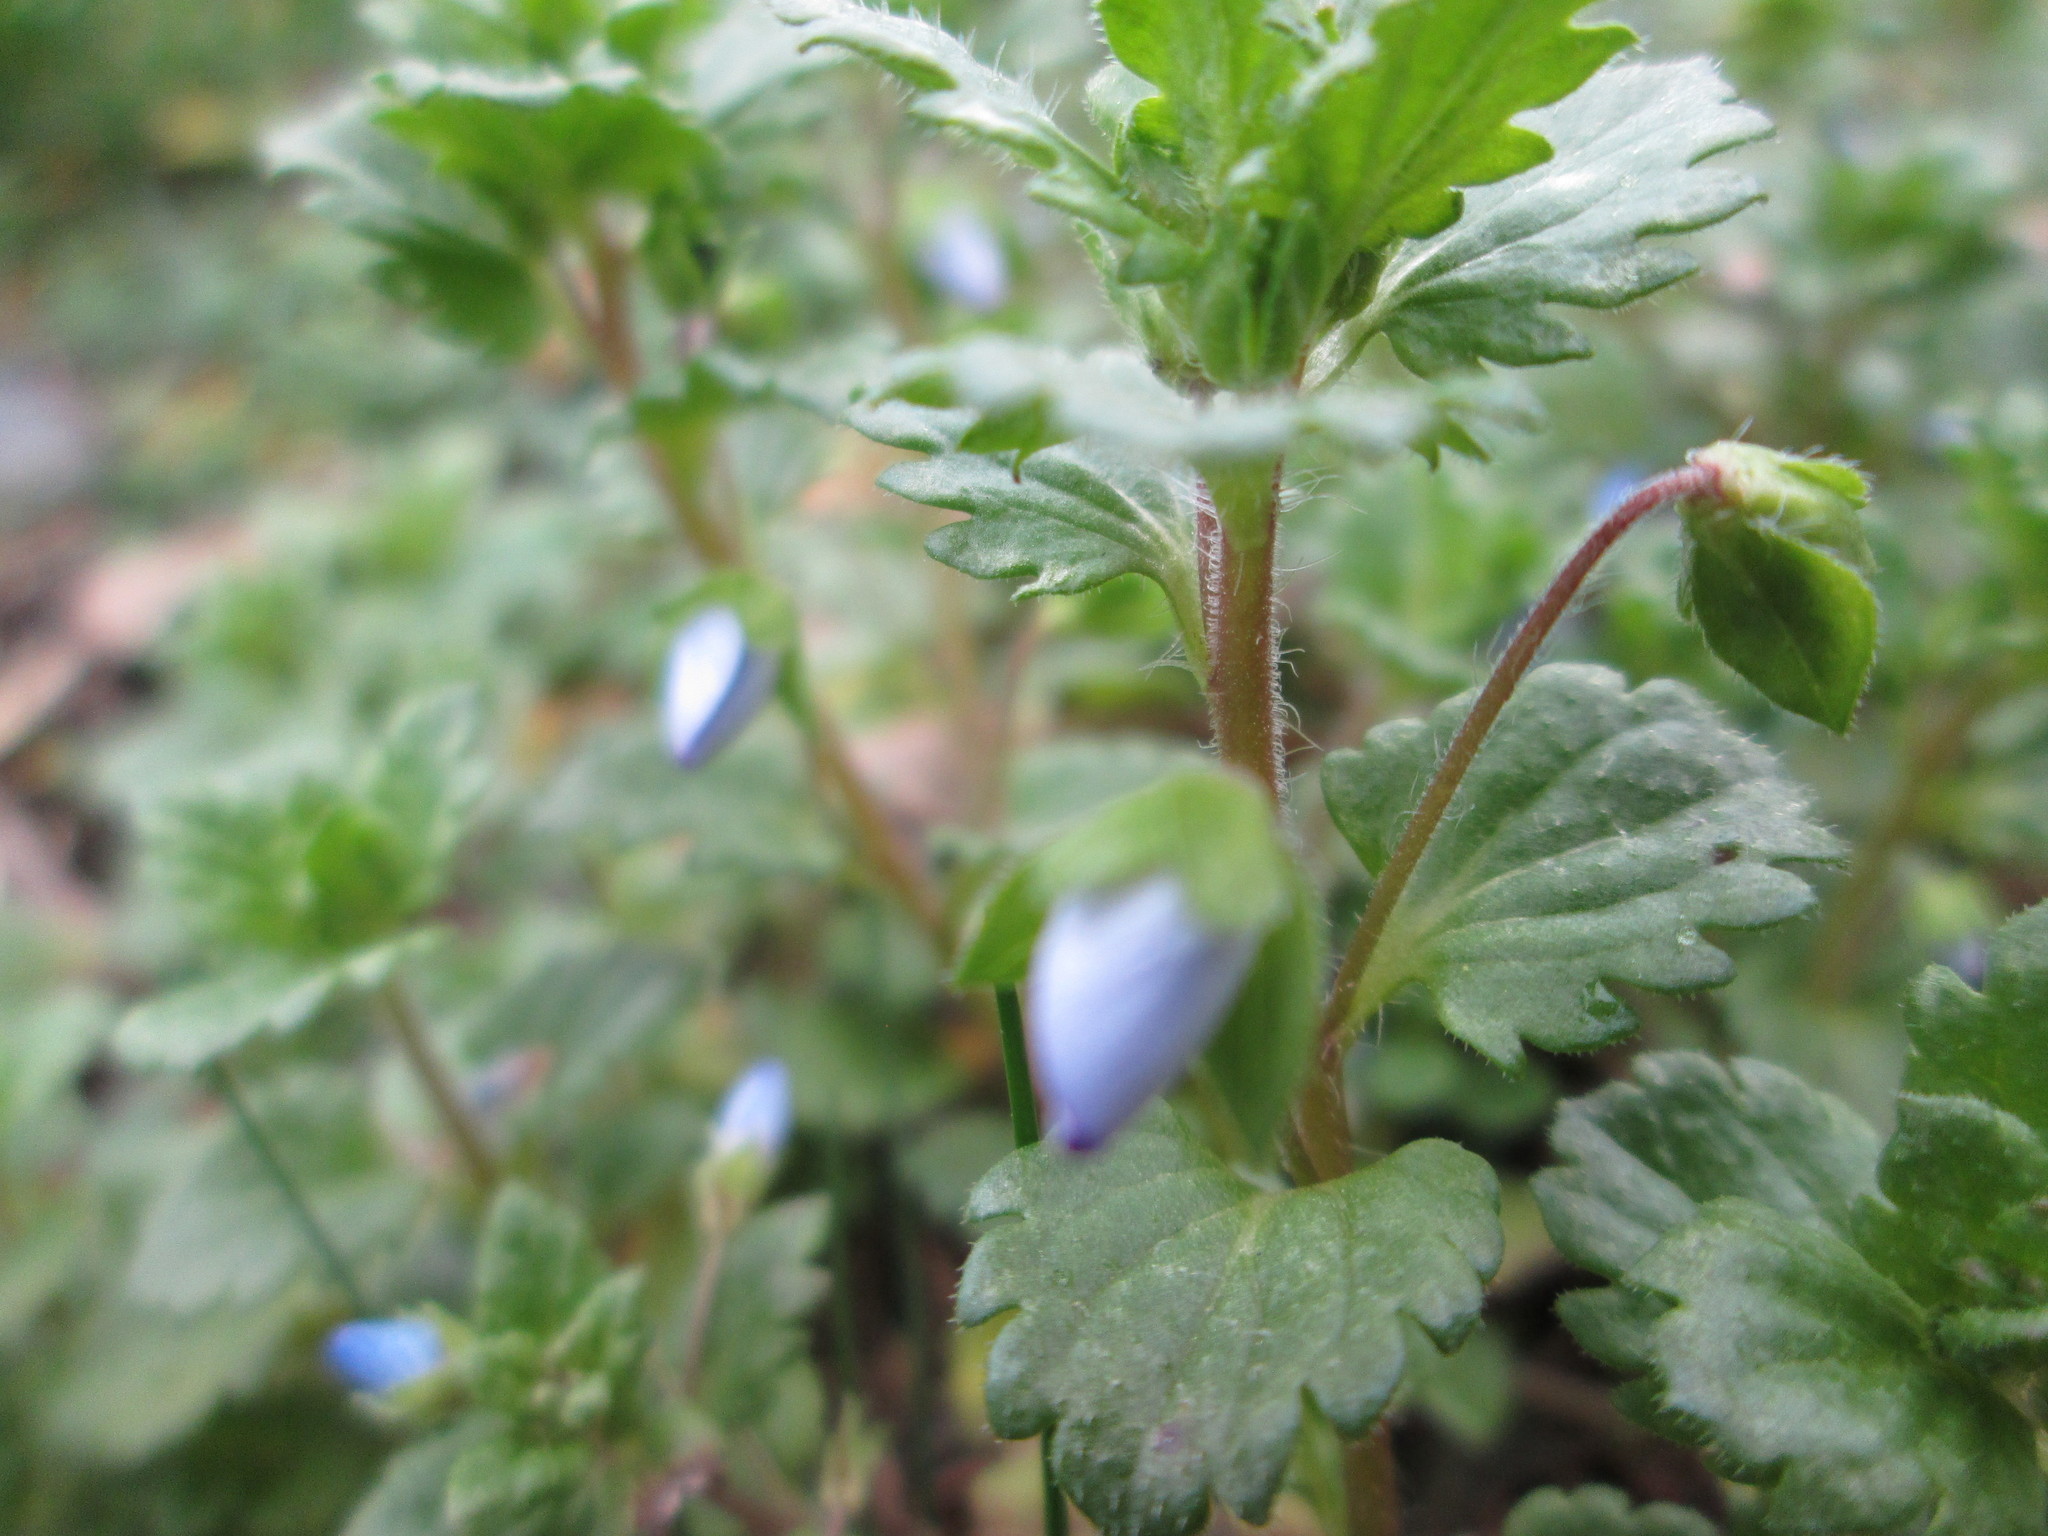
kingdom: Plantae
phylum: Tracheophyta
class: Magnoliopsida
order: Lamiales
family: Plantaginaceae
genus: Veronica
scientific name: Veronica persica
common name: Common field-speedwell
